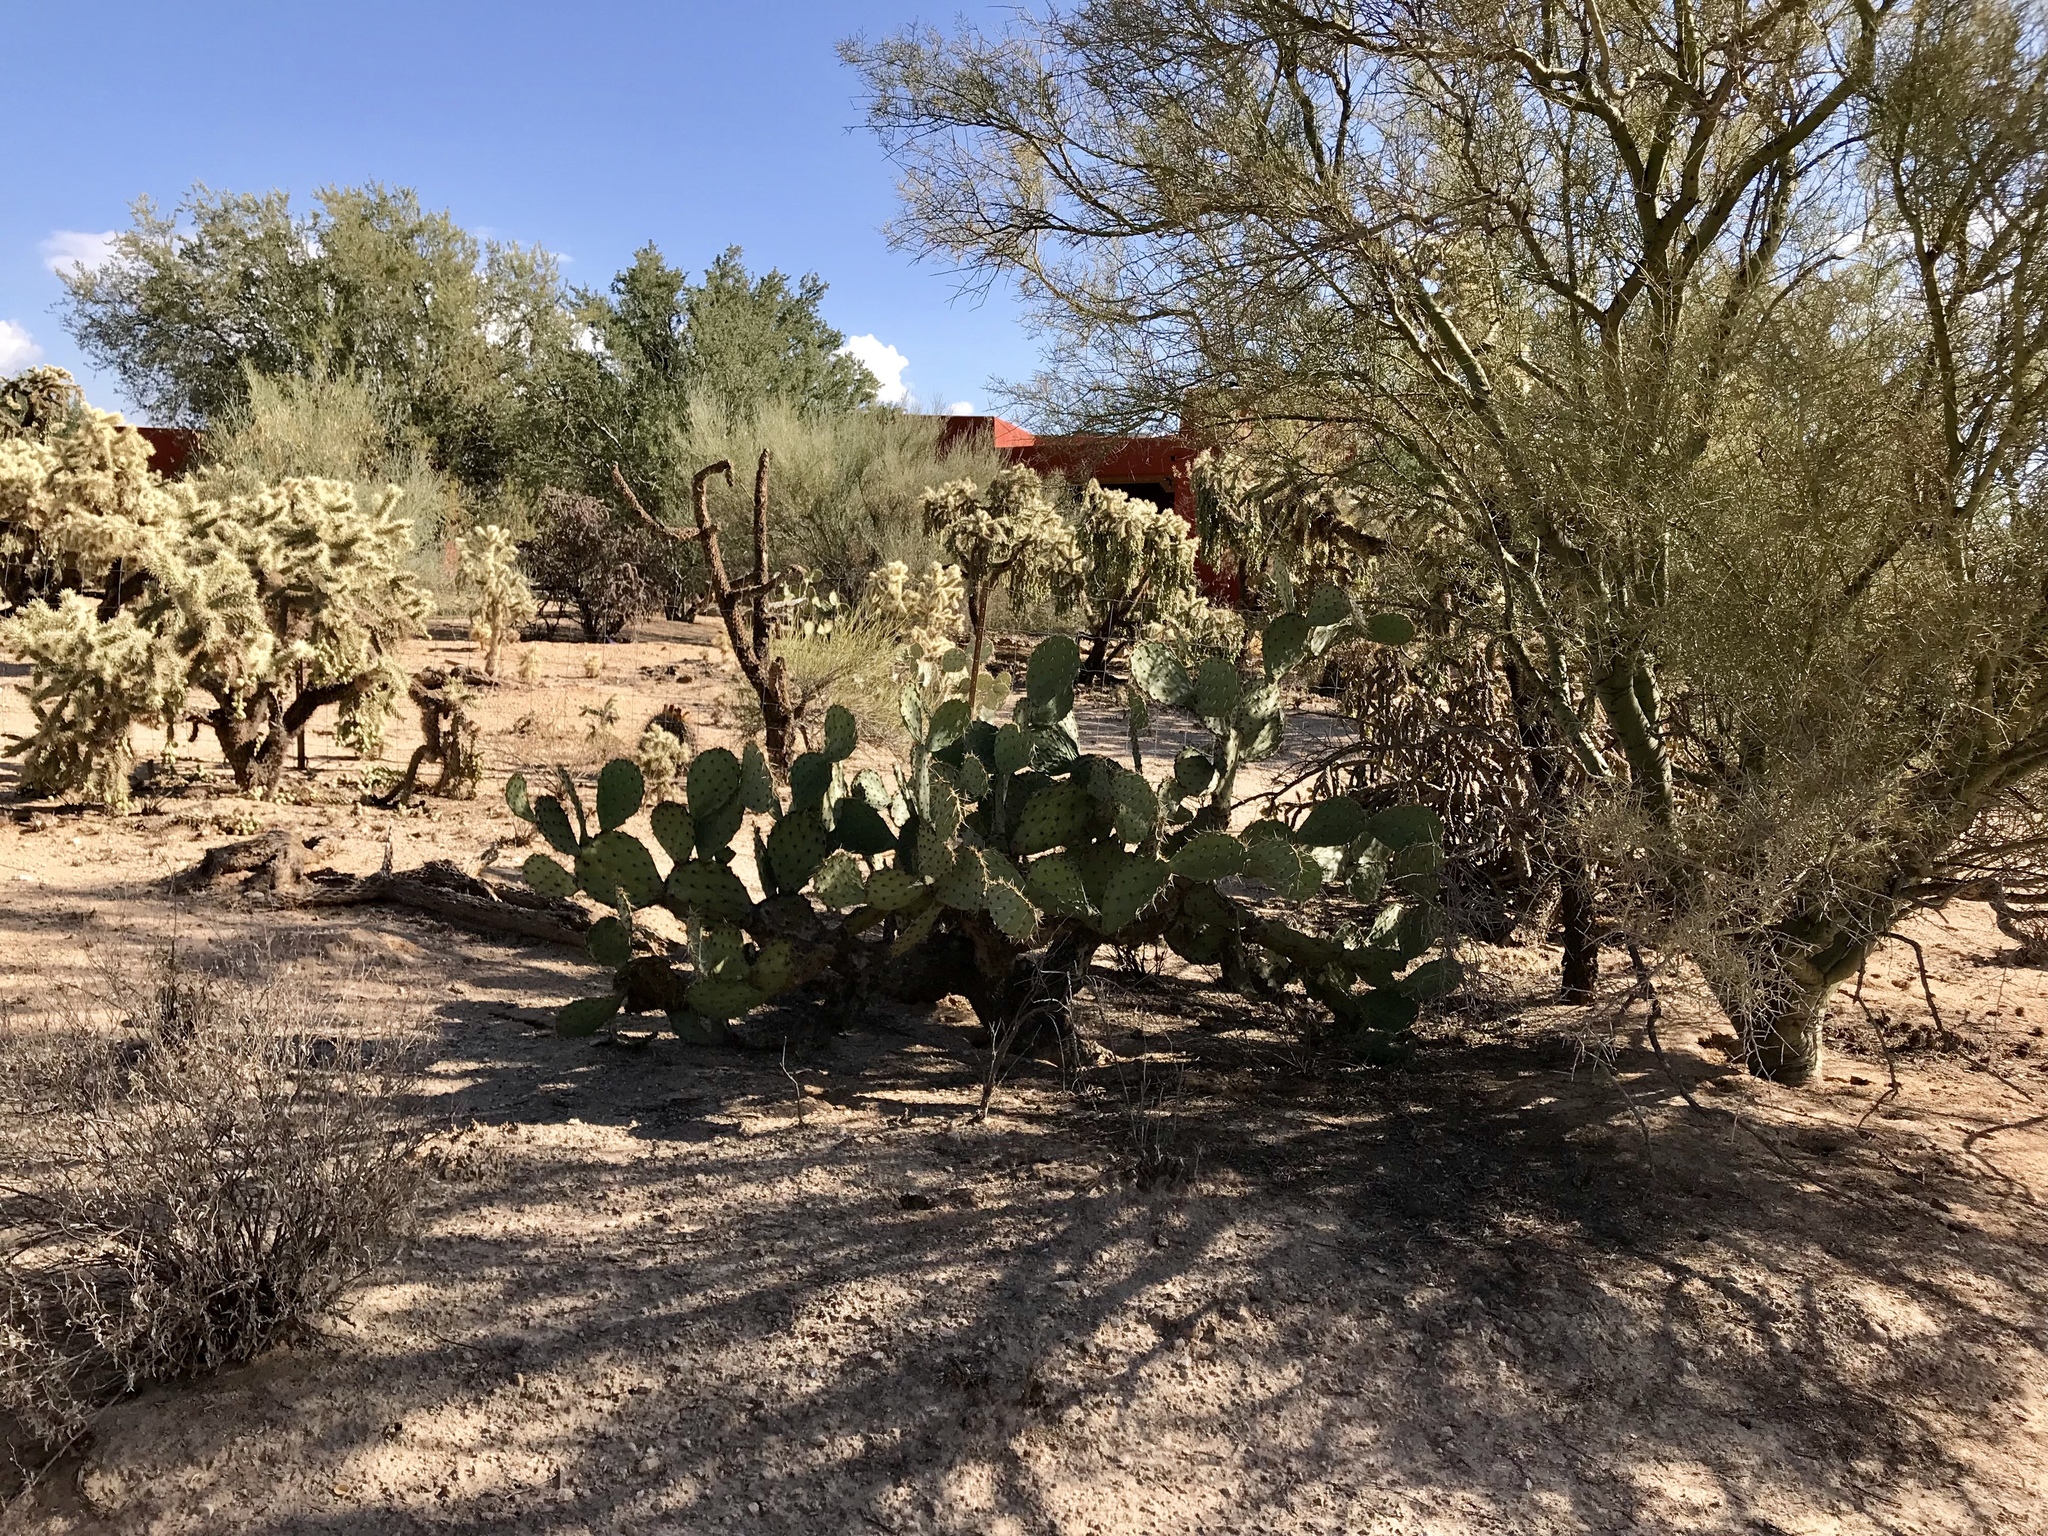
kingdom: Plantae
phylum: Tracheophyta
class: Magnoliopsida
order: Caryophyllales
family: Cactaceae
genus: Opuntia
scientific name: Opuntia engelmannii
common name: Cactus-apple
